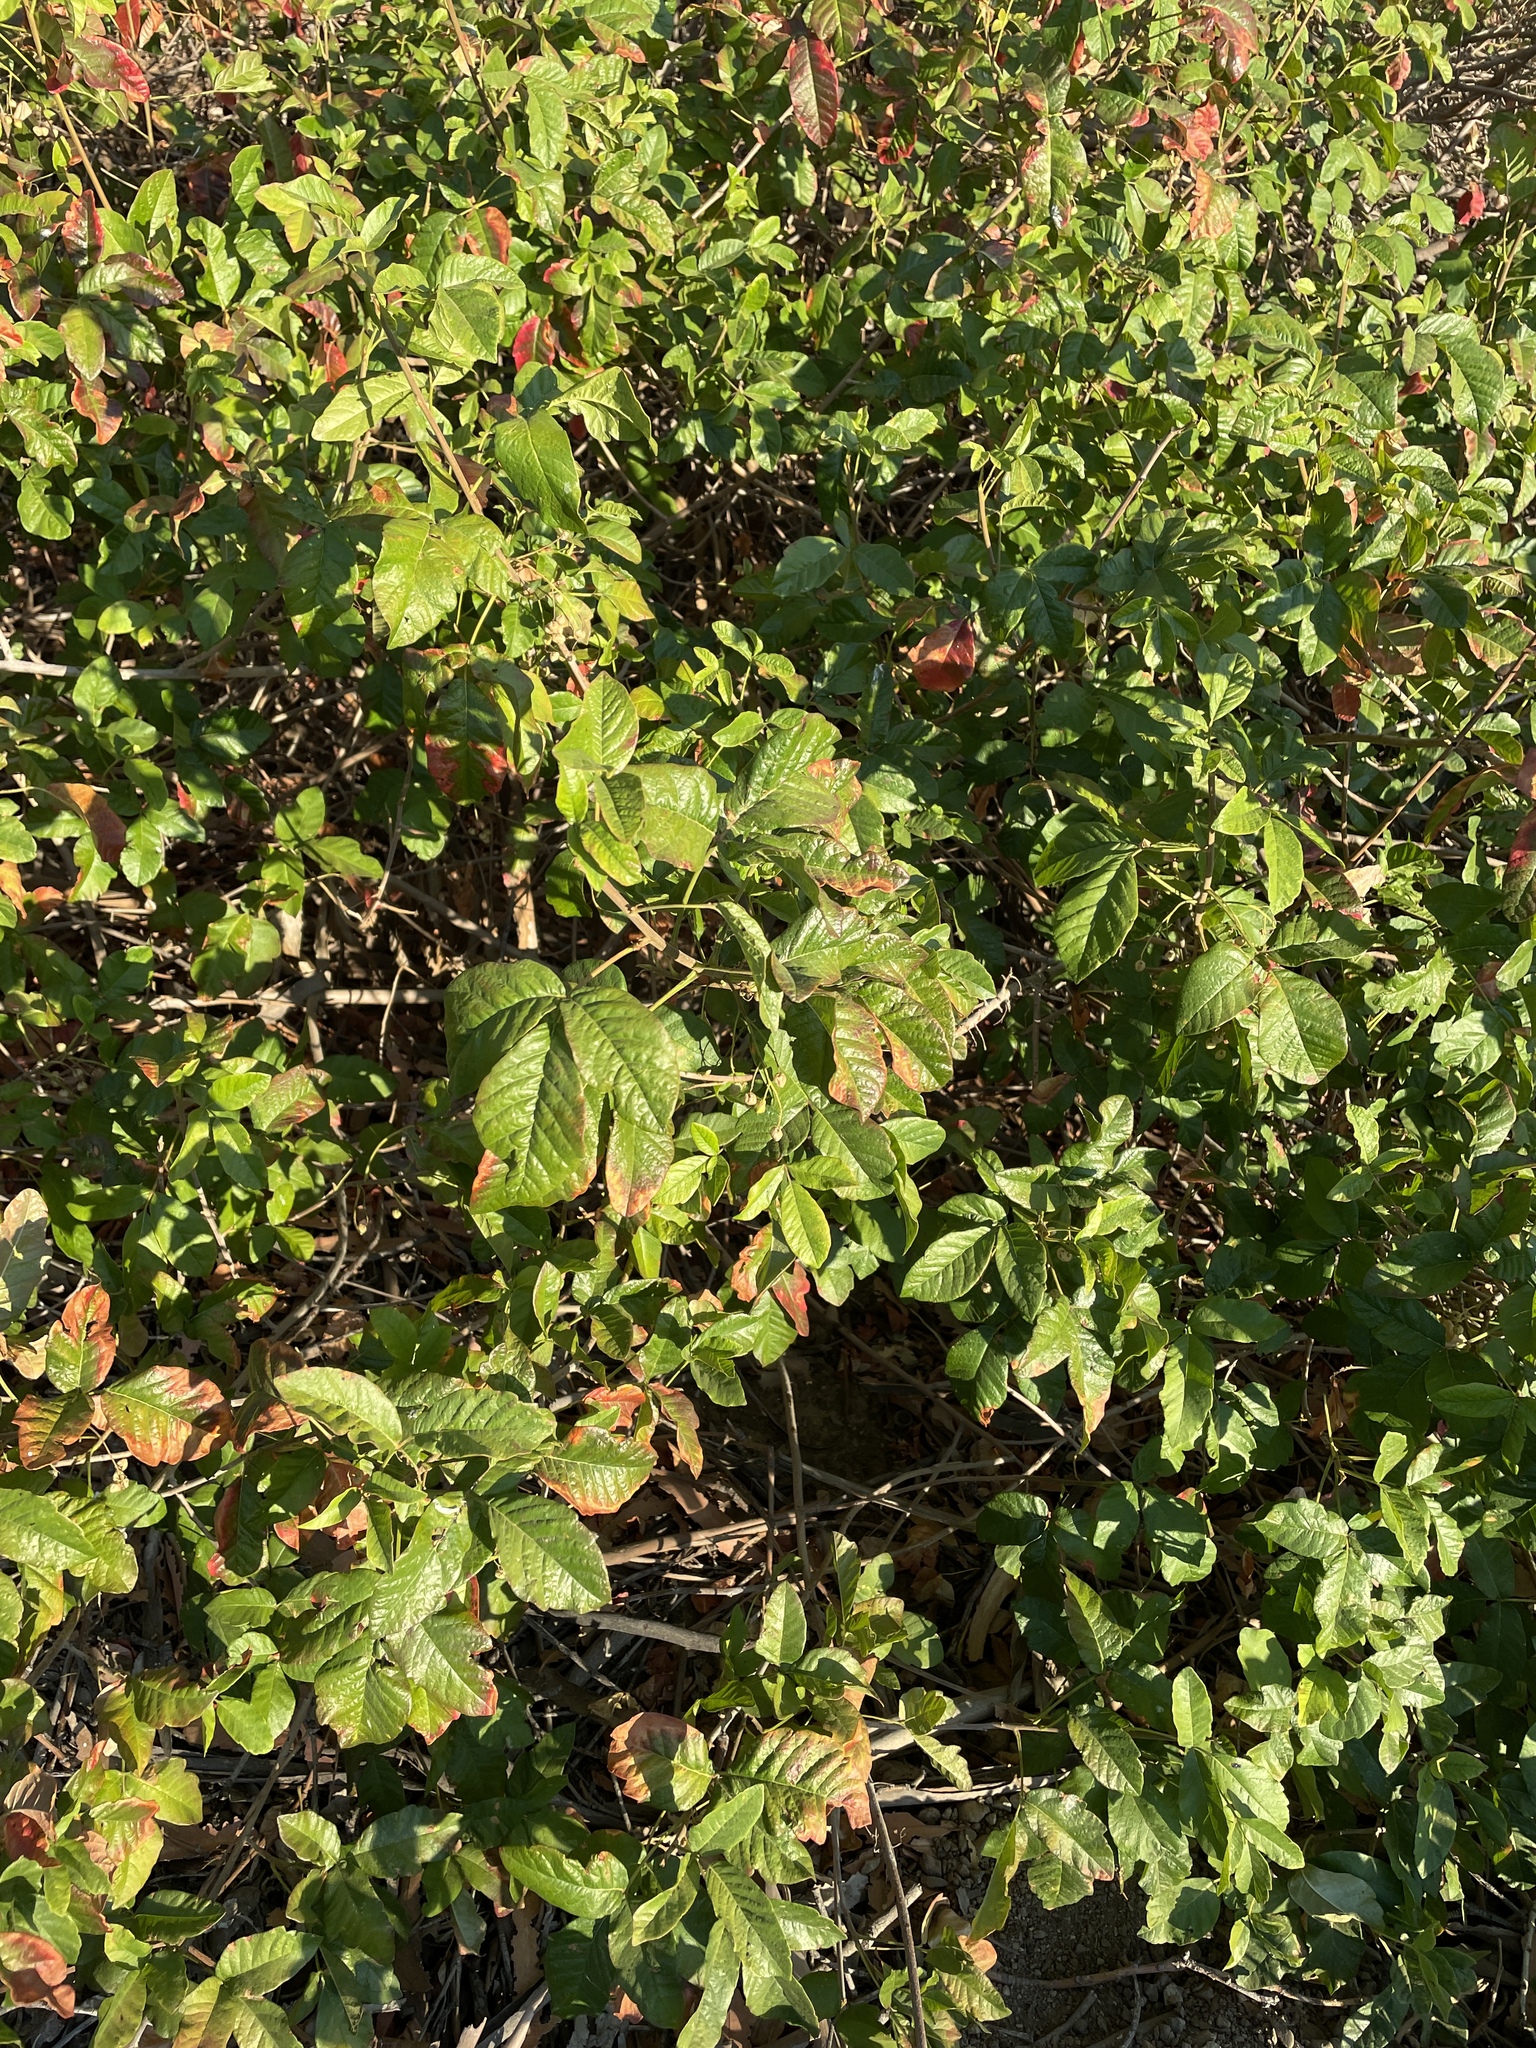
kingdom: Plantae
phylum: Tracheophyta
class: Magnoliopsida
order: Sapindales
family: Anacardiaceae
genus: Toxicodendron
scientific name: Toxicodendron diversilobum
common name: Pacific poison-oak
